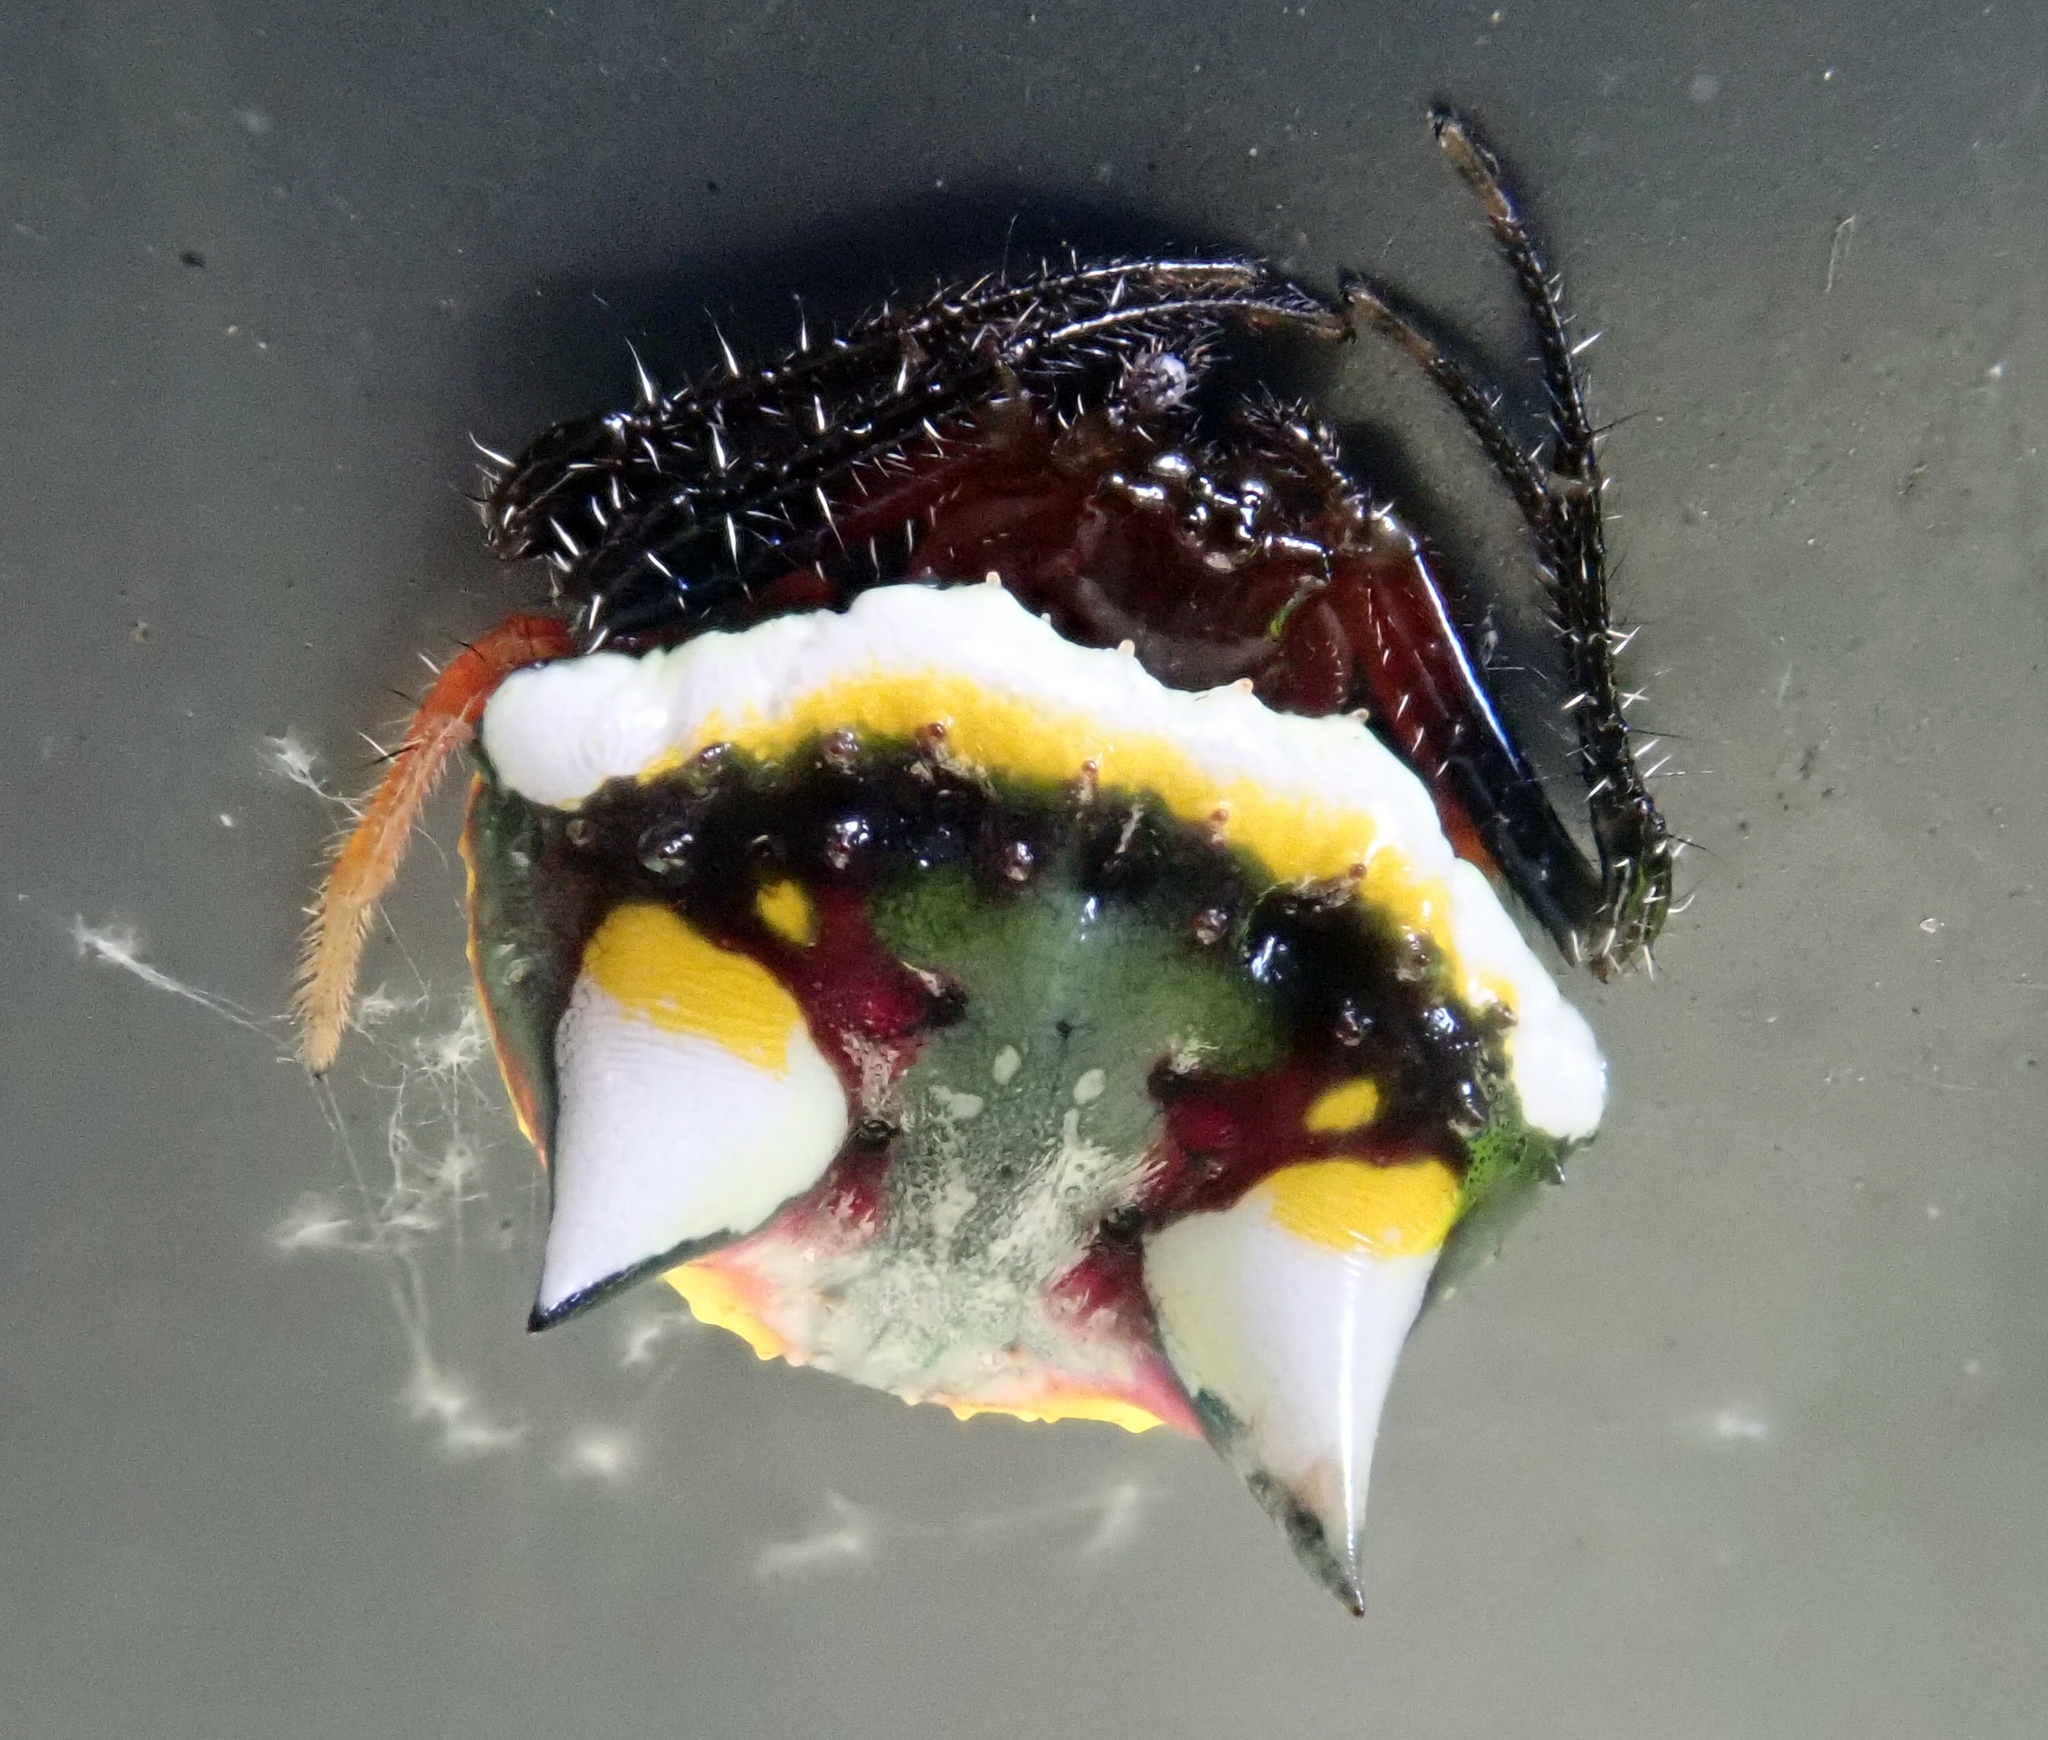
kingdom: Animalia
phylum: Arthropoda
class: Arachnida
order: Araneae
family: Araneidae
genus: Poecilopachys
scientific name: Poecilopachys australasia
